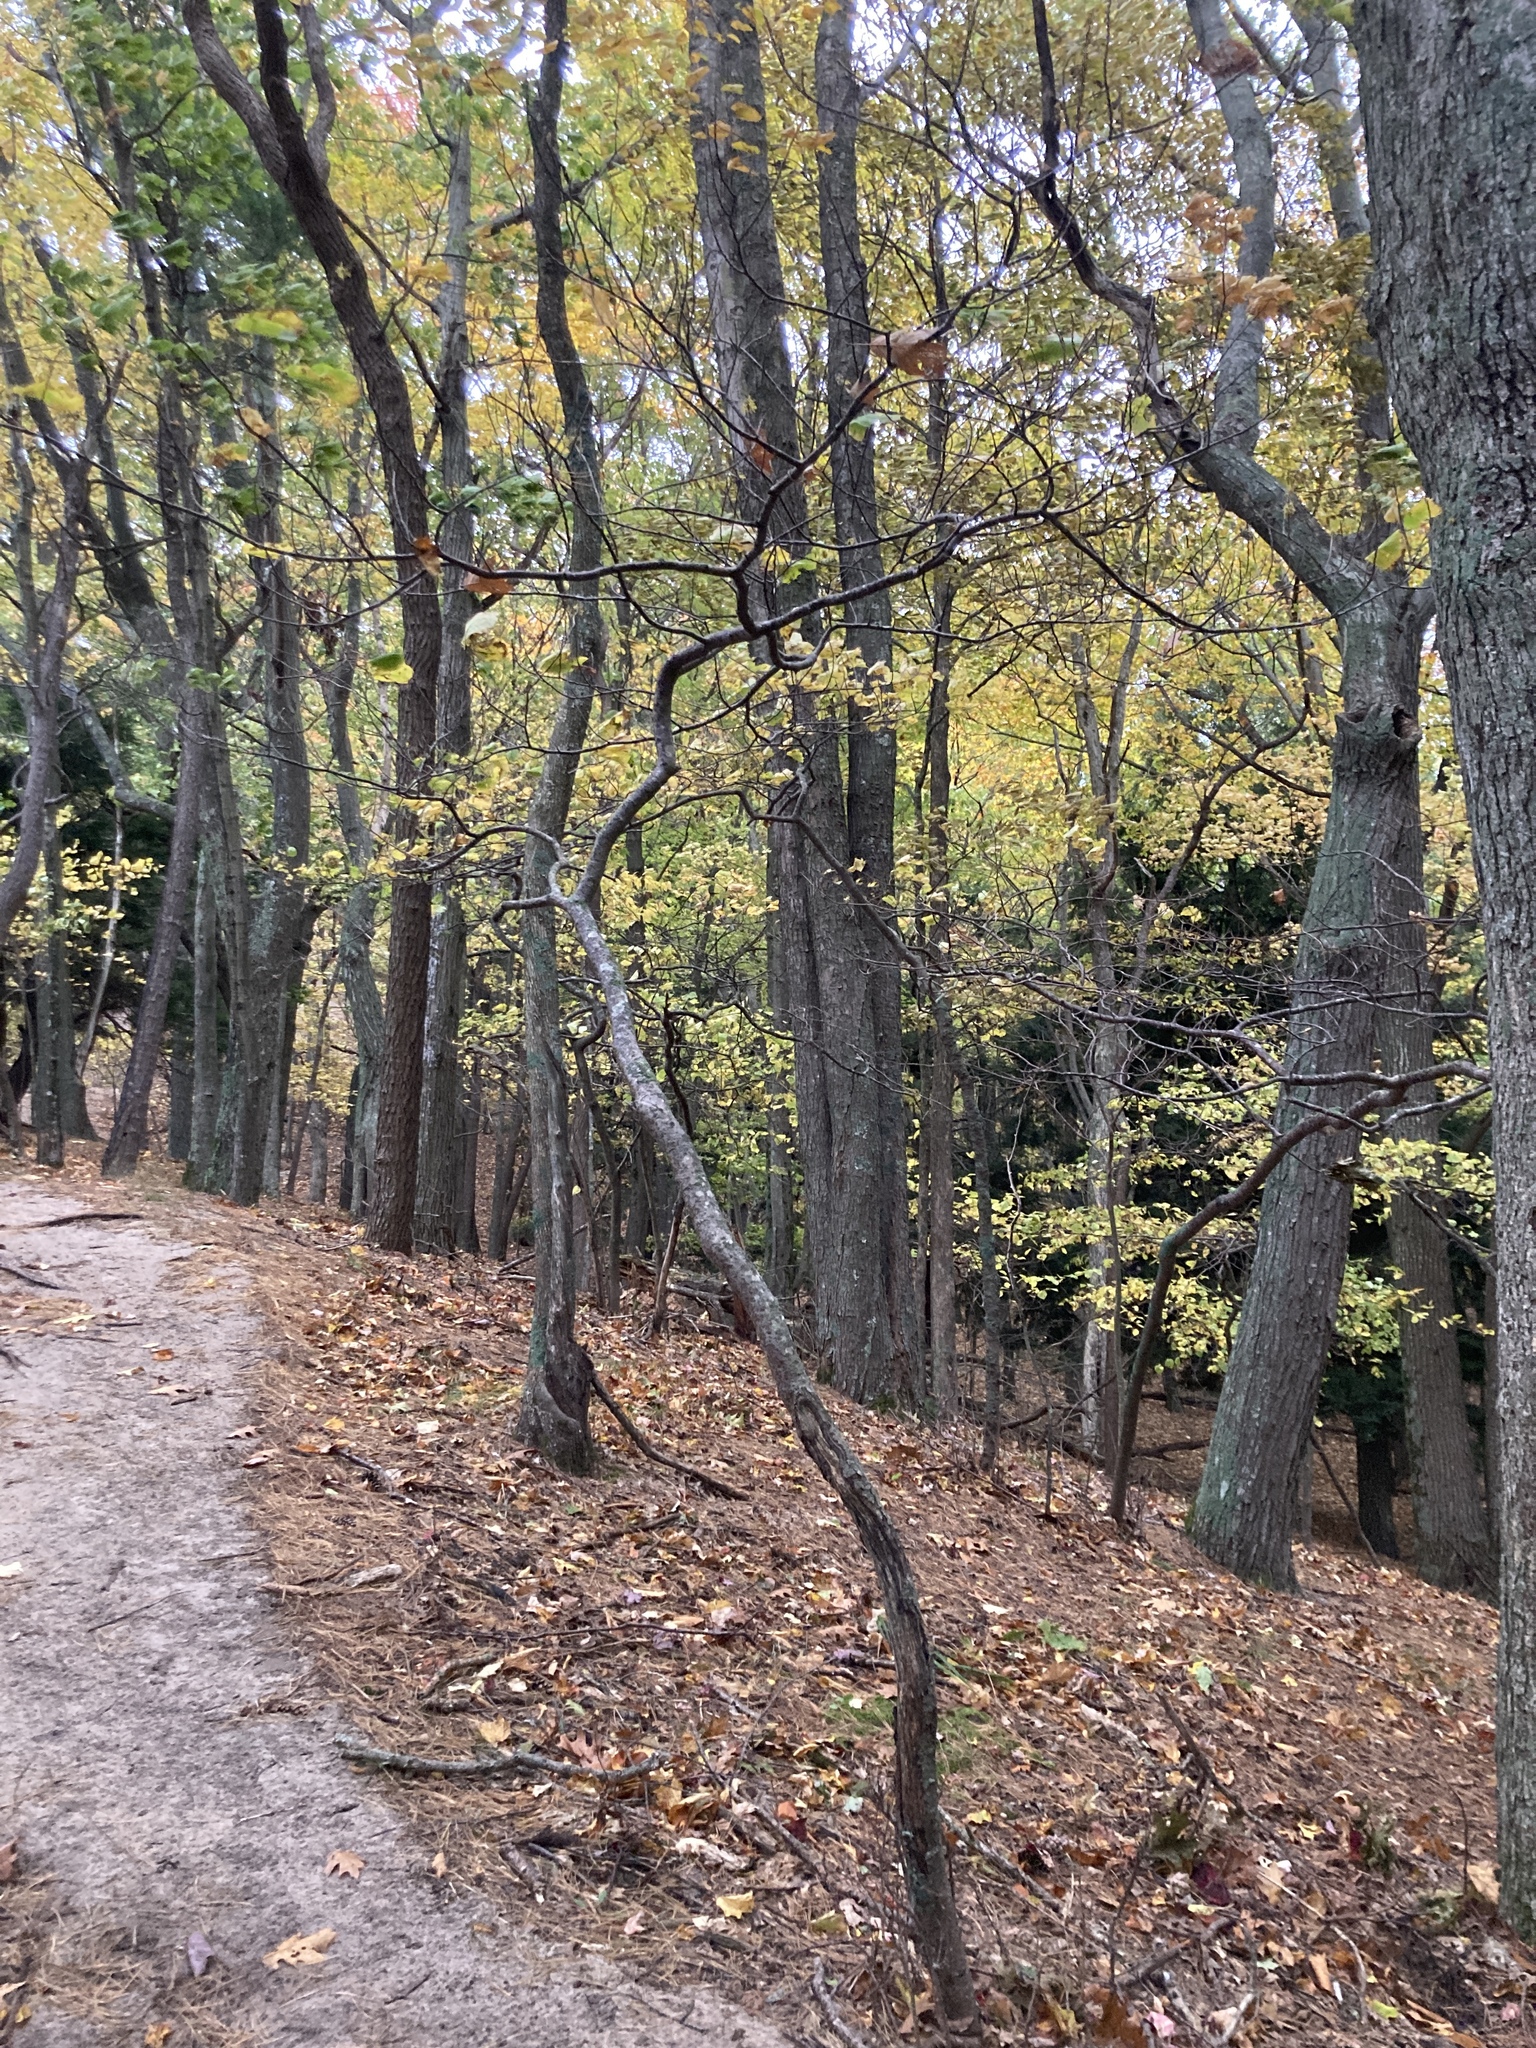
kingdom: Plantae
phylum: Tracheophyta
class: Magnoliopsida
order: Saxifragales
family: Hamamelidaceae
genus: Hamamelis
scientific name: Hamamelis virginiana
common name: Witch-hazel
